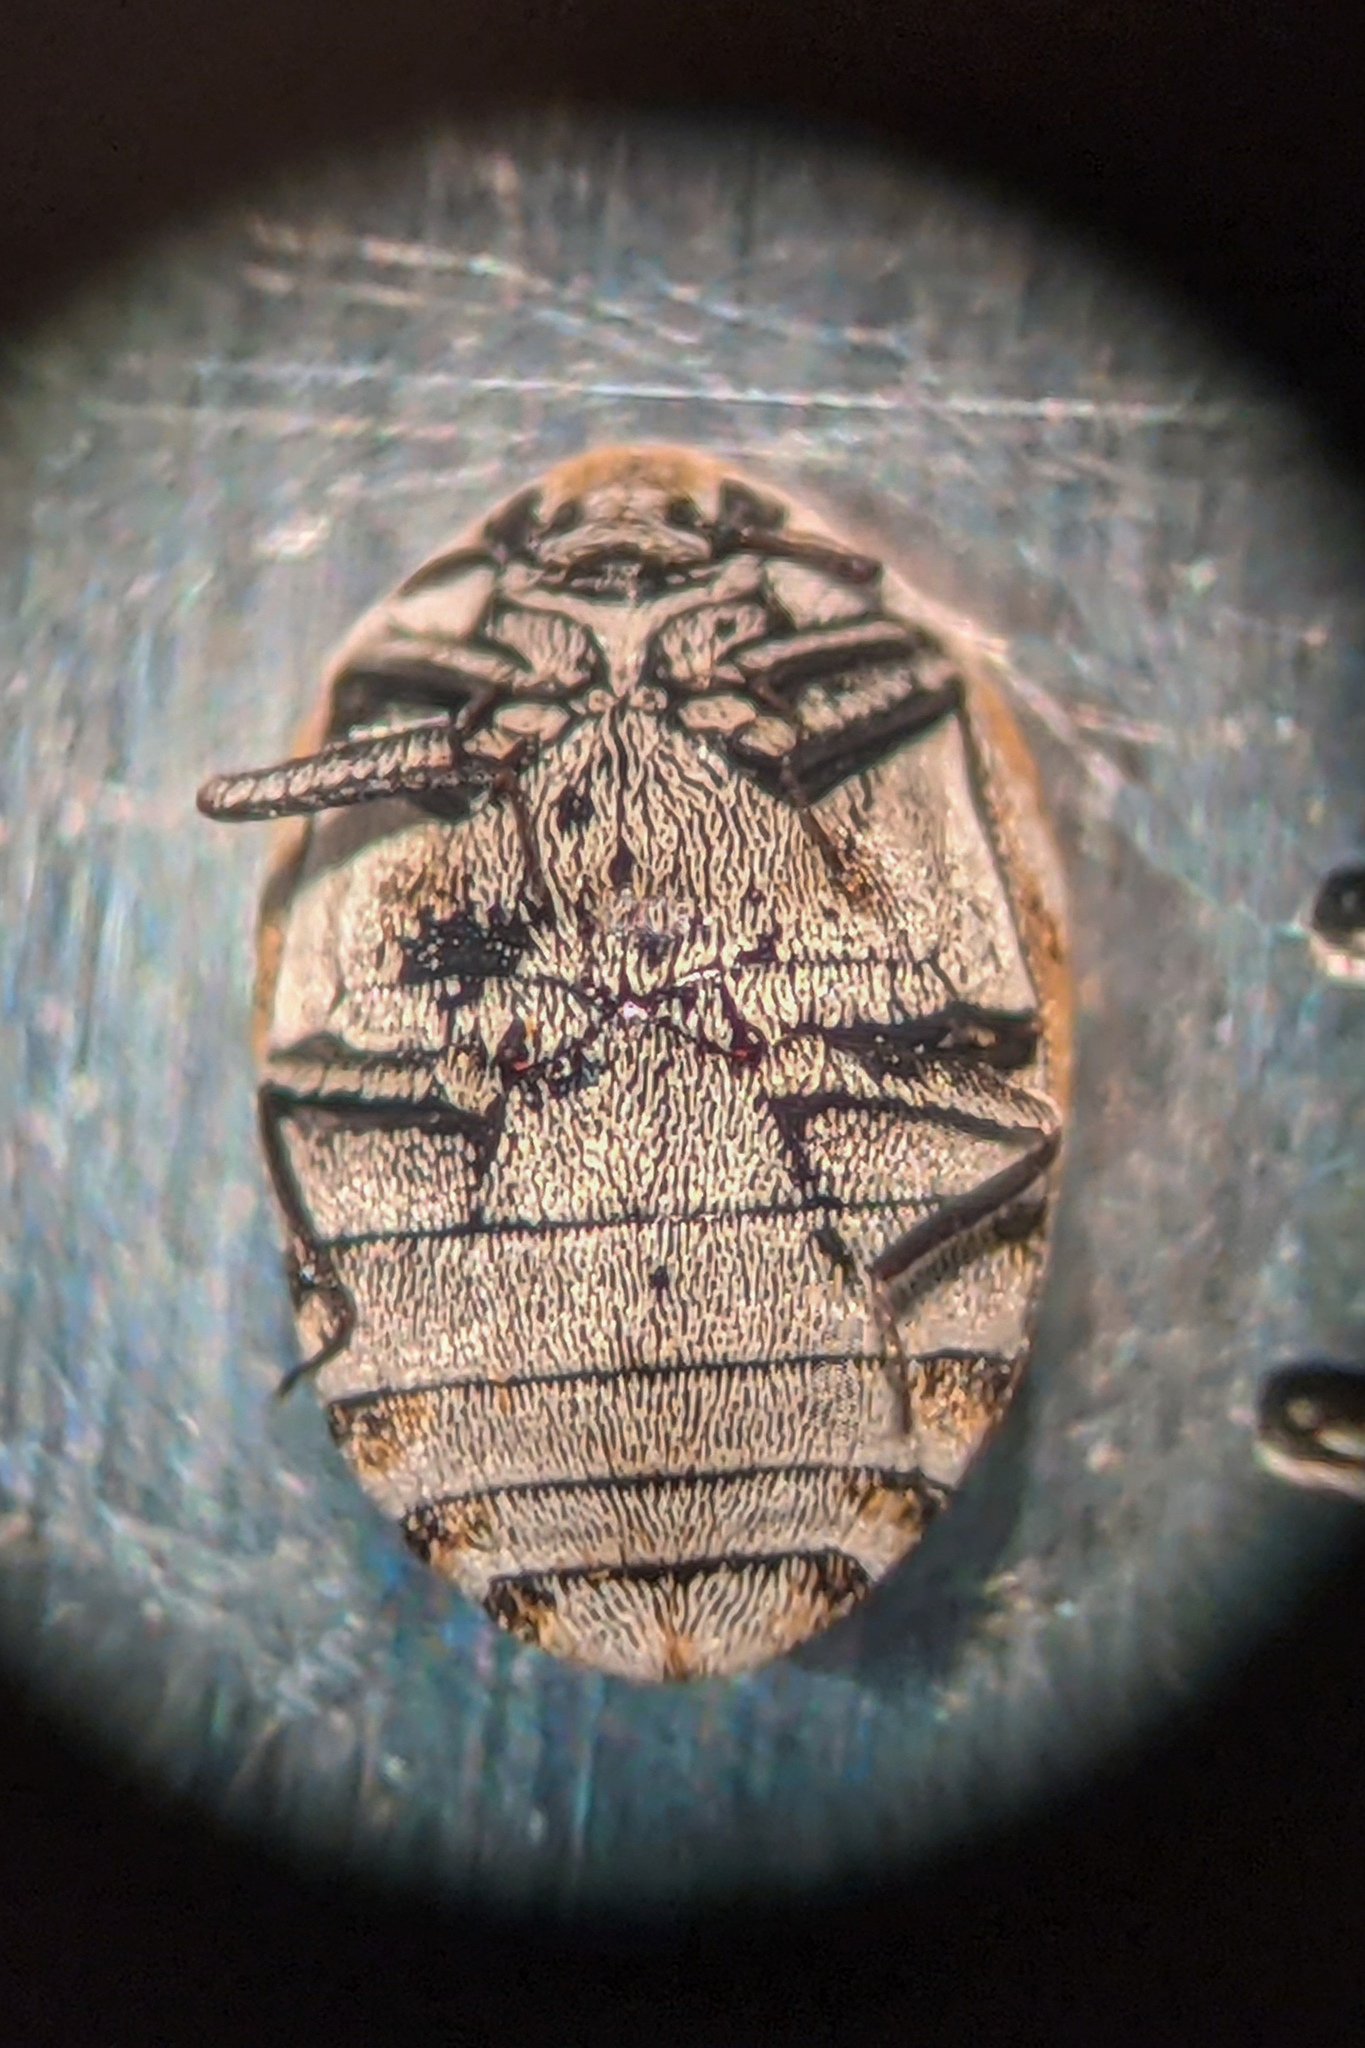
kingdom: Animalia
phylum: Arthropoda
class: Insecta
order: Coleoptera
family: Dermestidae
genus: Anthrenus
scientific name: Anthrenus verbasci
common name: Varied carpet beetle
